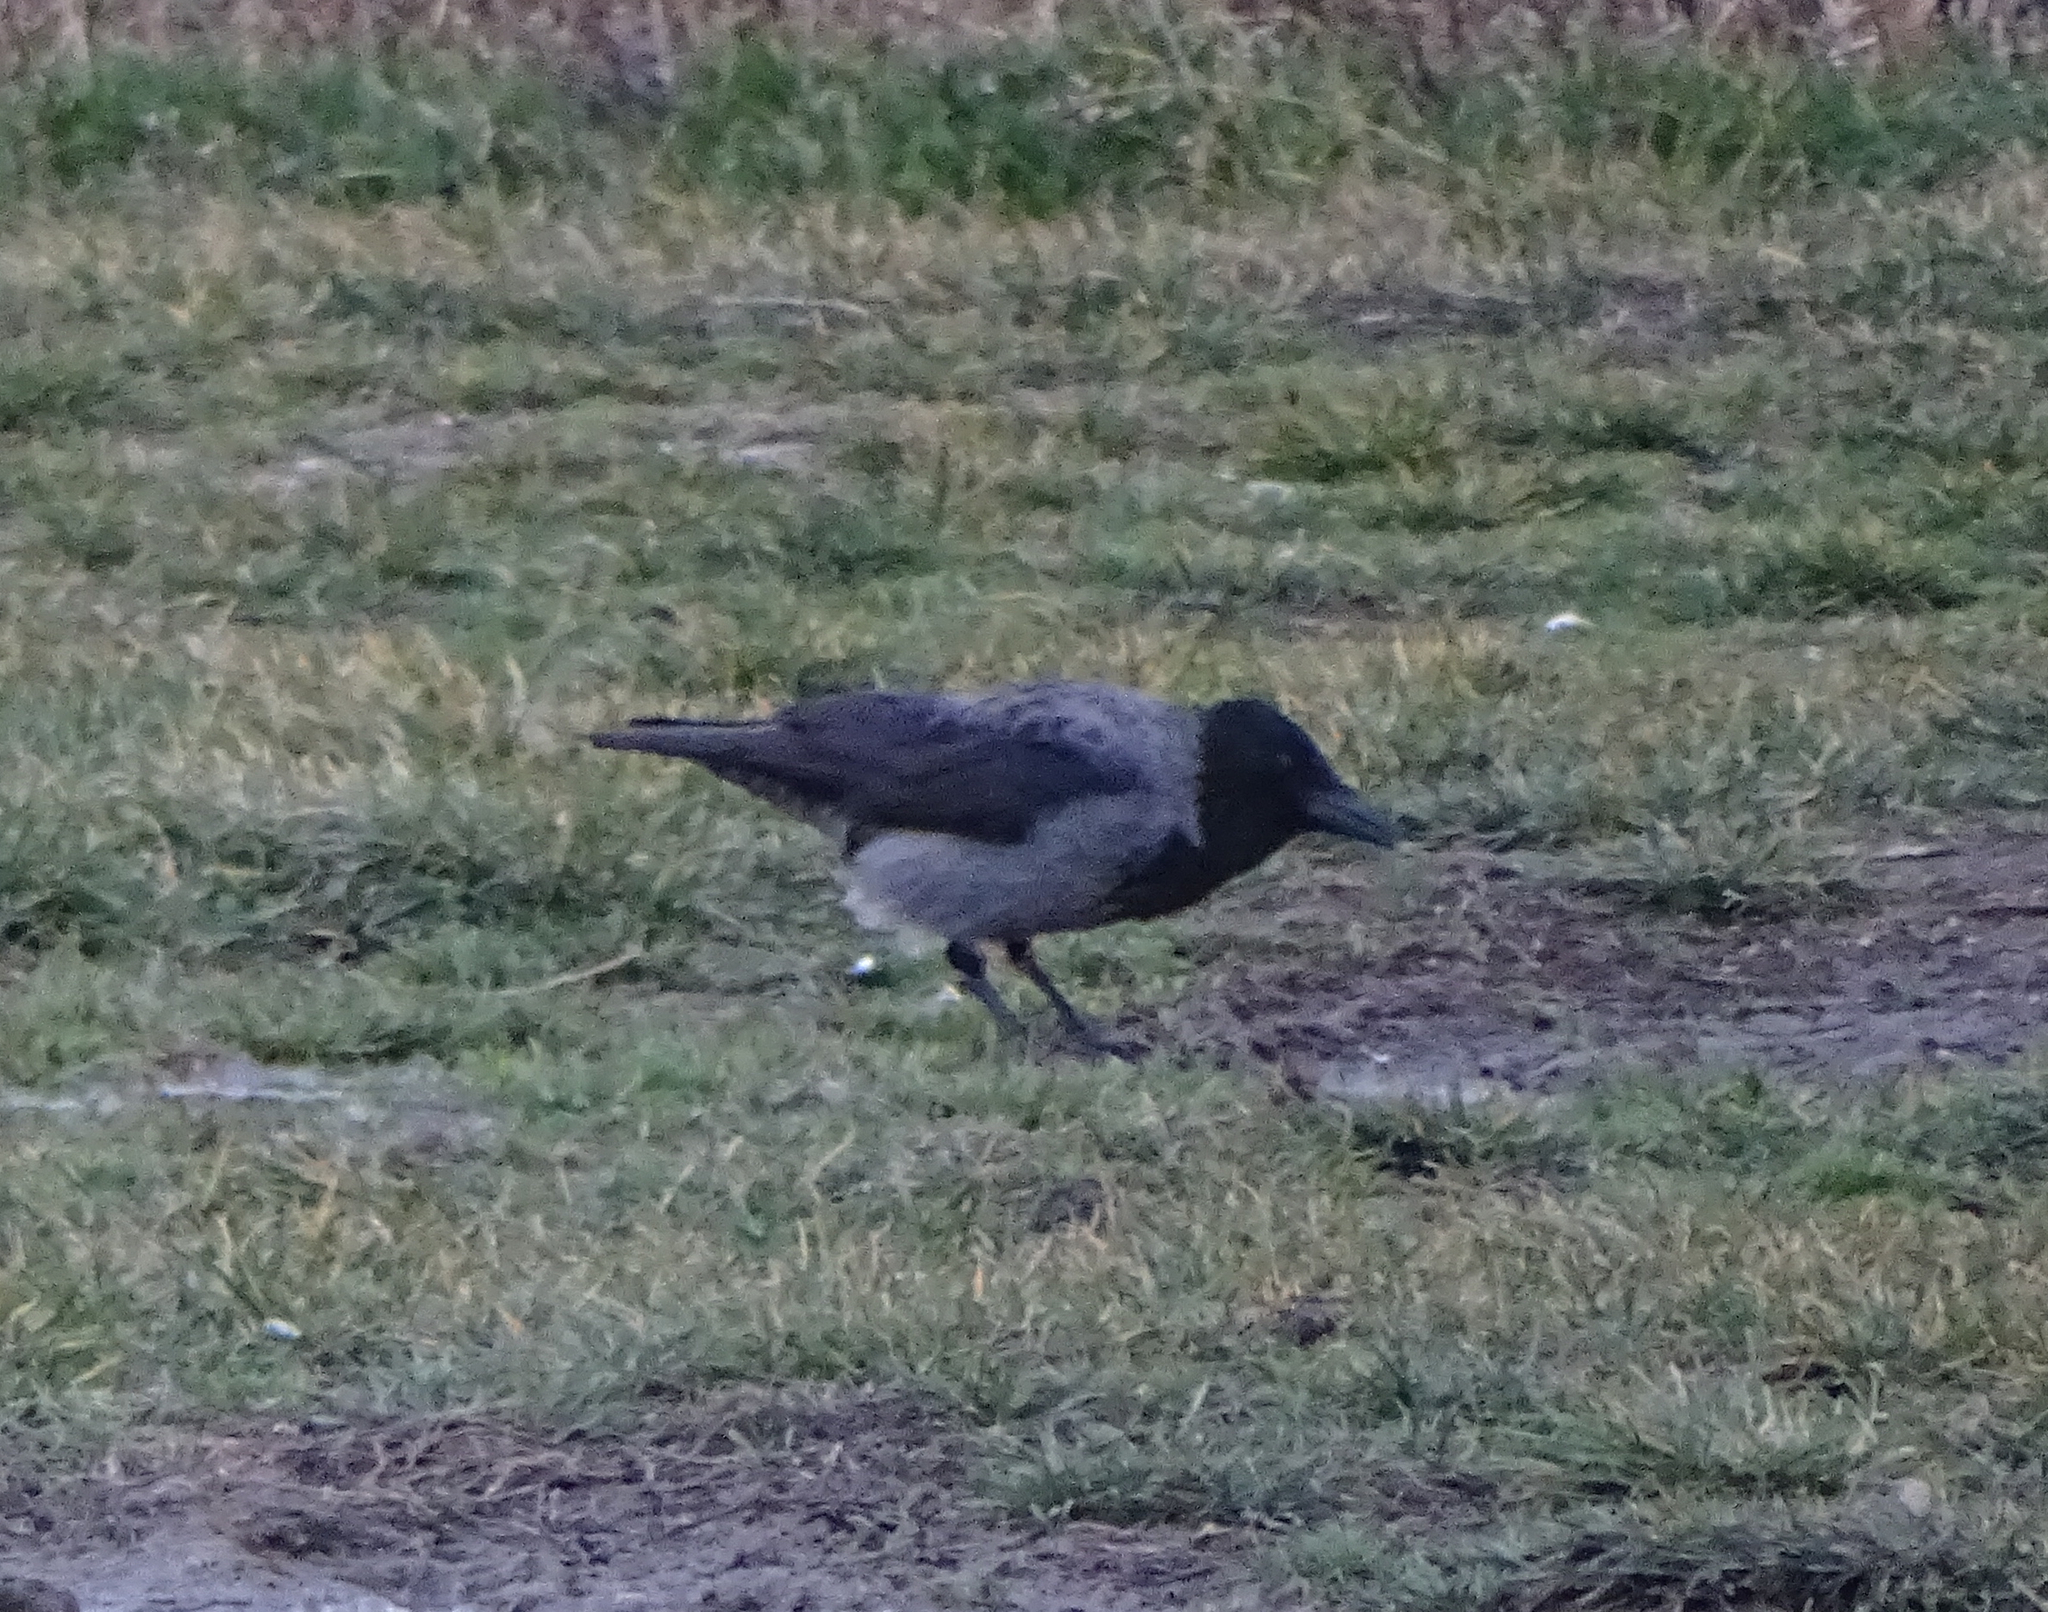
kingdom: Animalia
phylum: Chordata
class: Aves
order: Passeriformes
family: Corvidae
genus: Corvus
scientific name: Corvus
